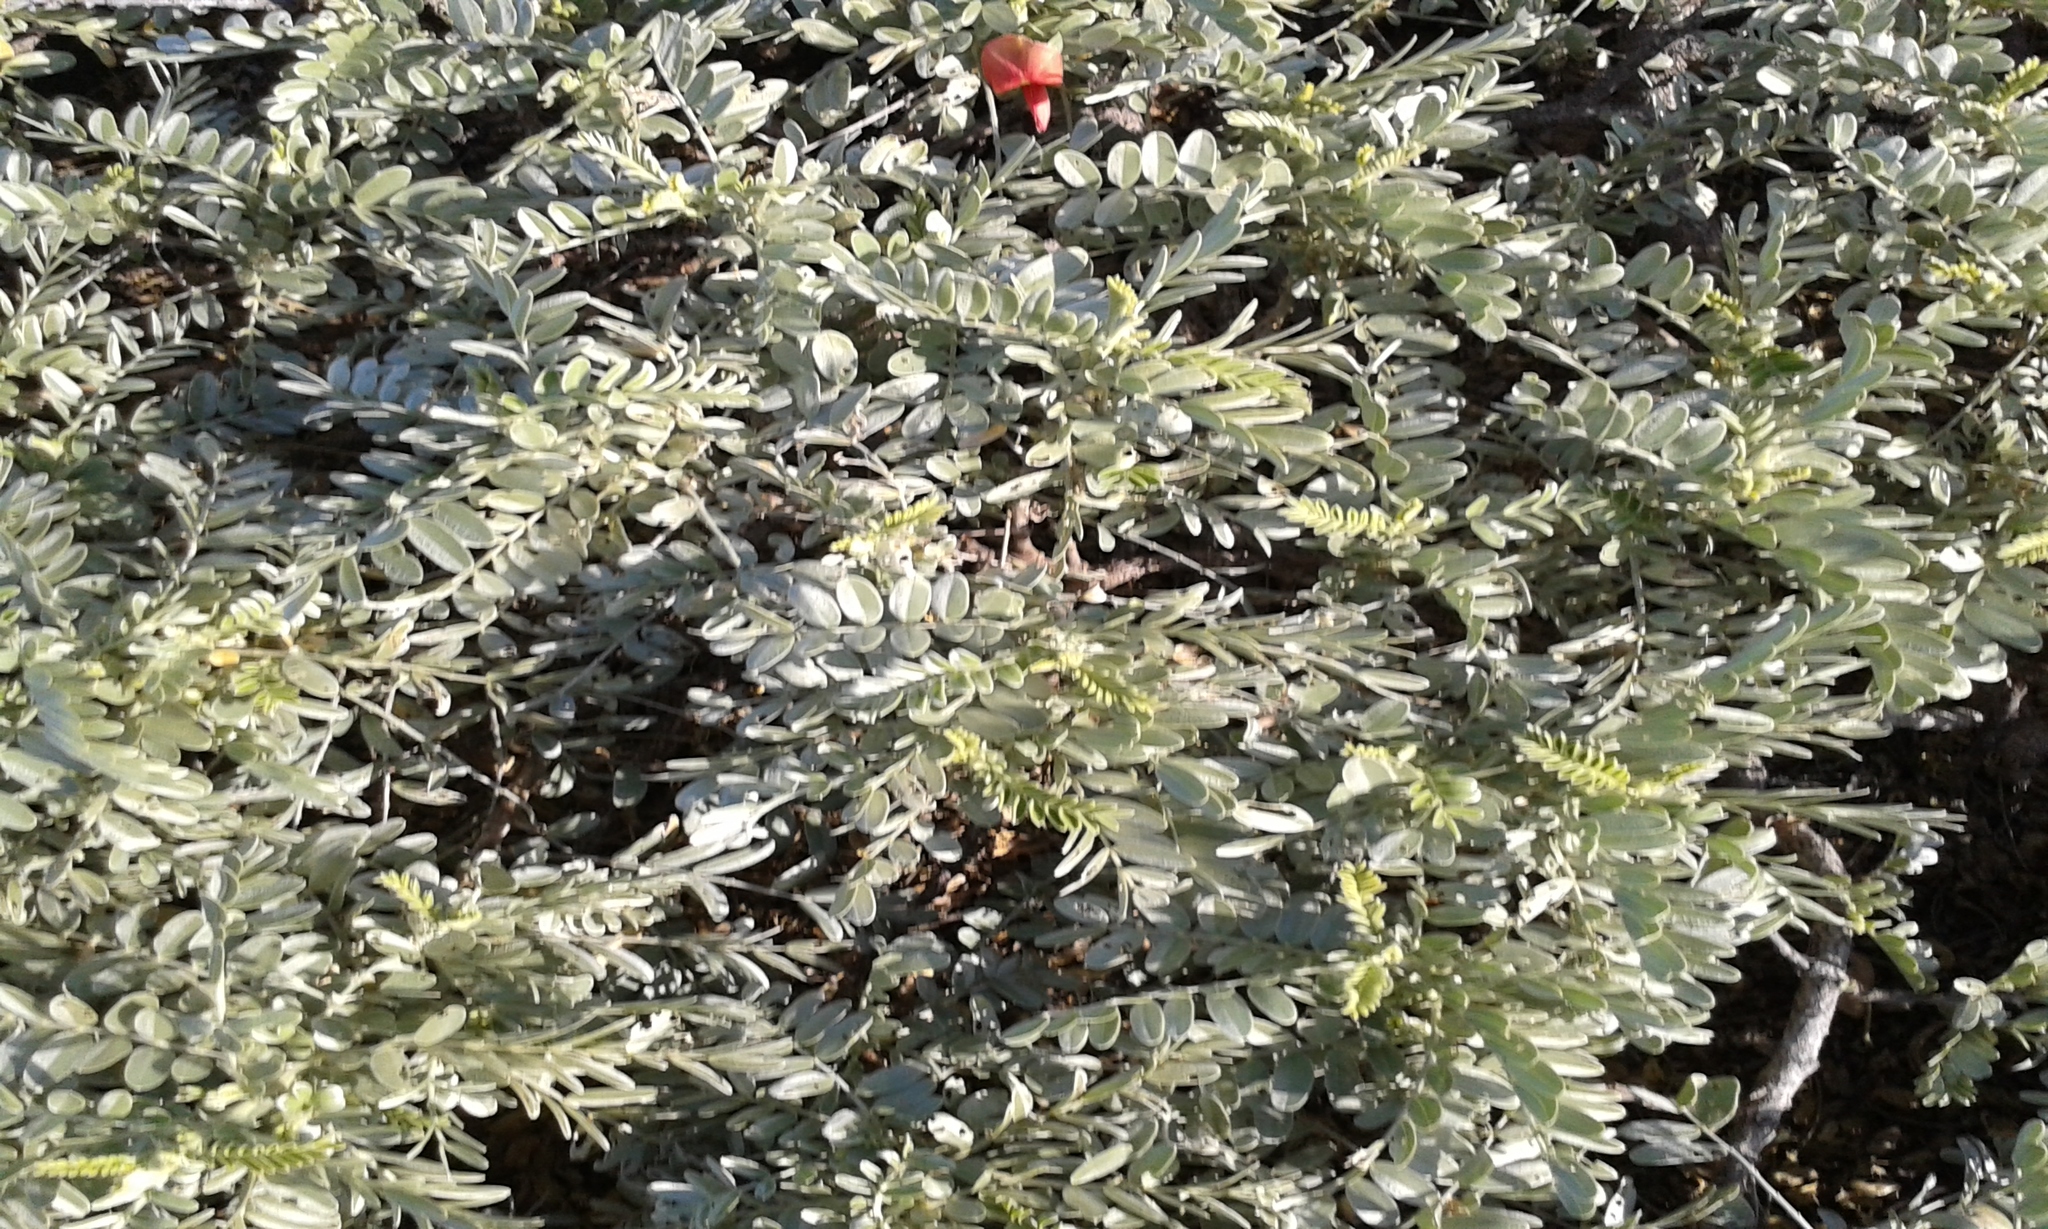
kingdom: Plantae
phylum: Tracheophyta
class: Magnoliopsida
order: Fabales
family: Fabaceae
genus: Sesbania
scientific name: Sesbania tomentosa
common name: `ohai
